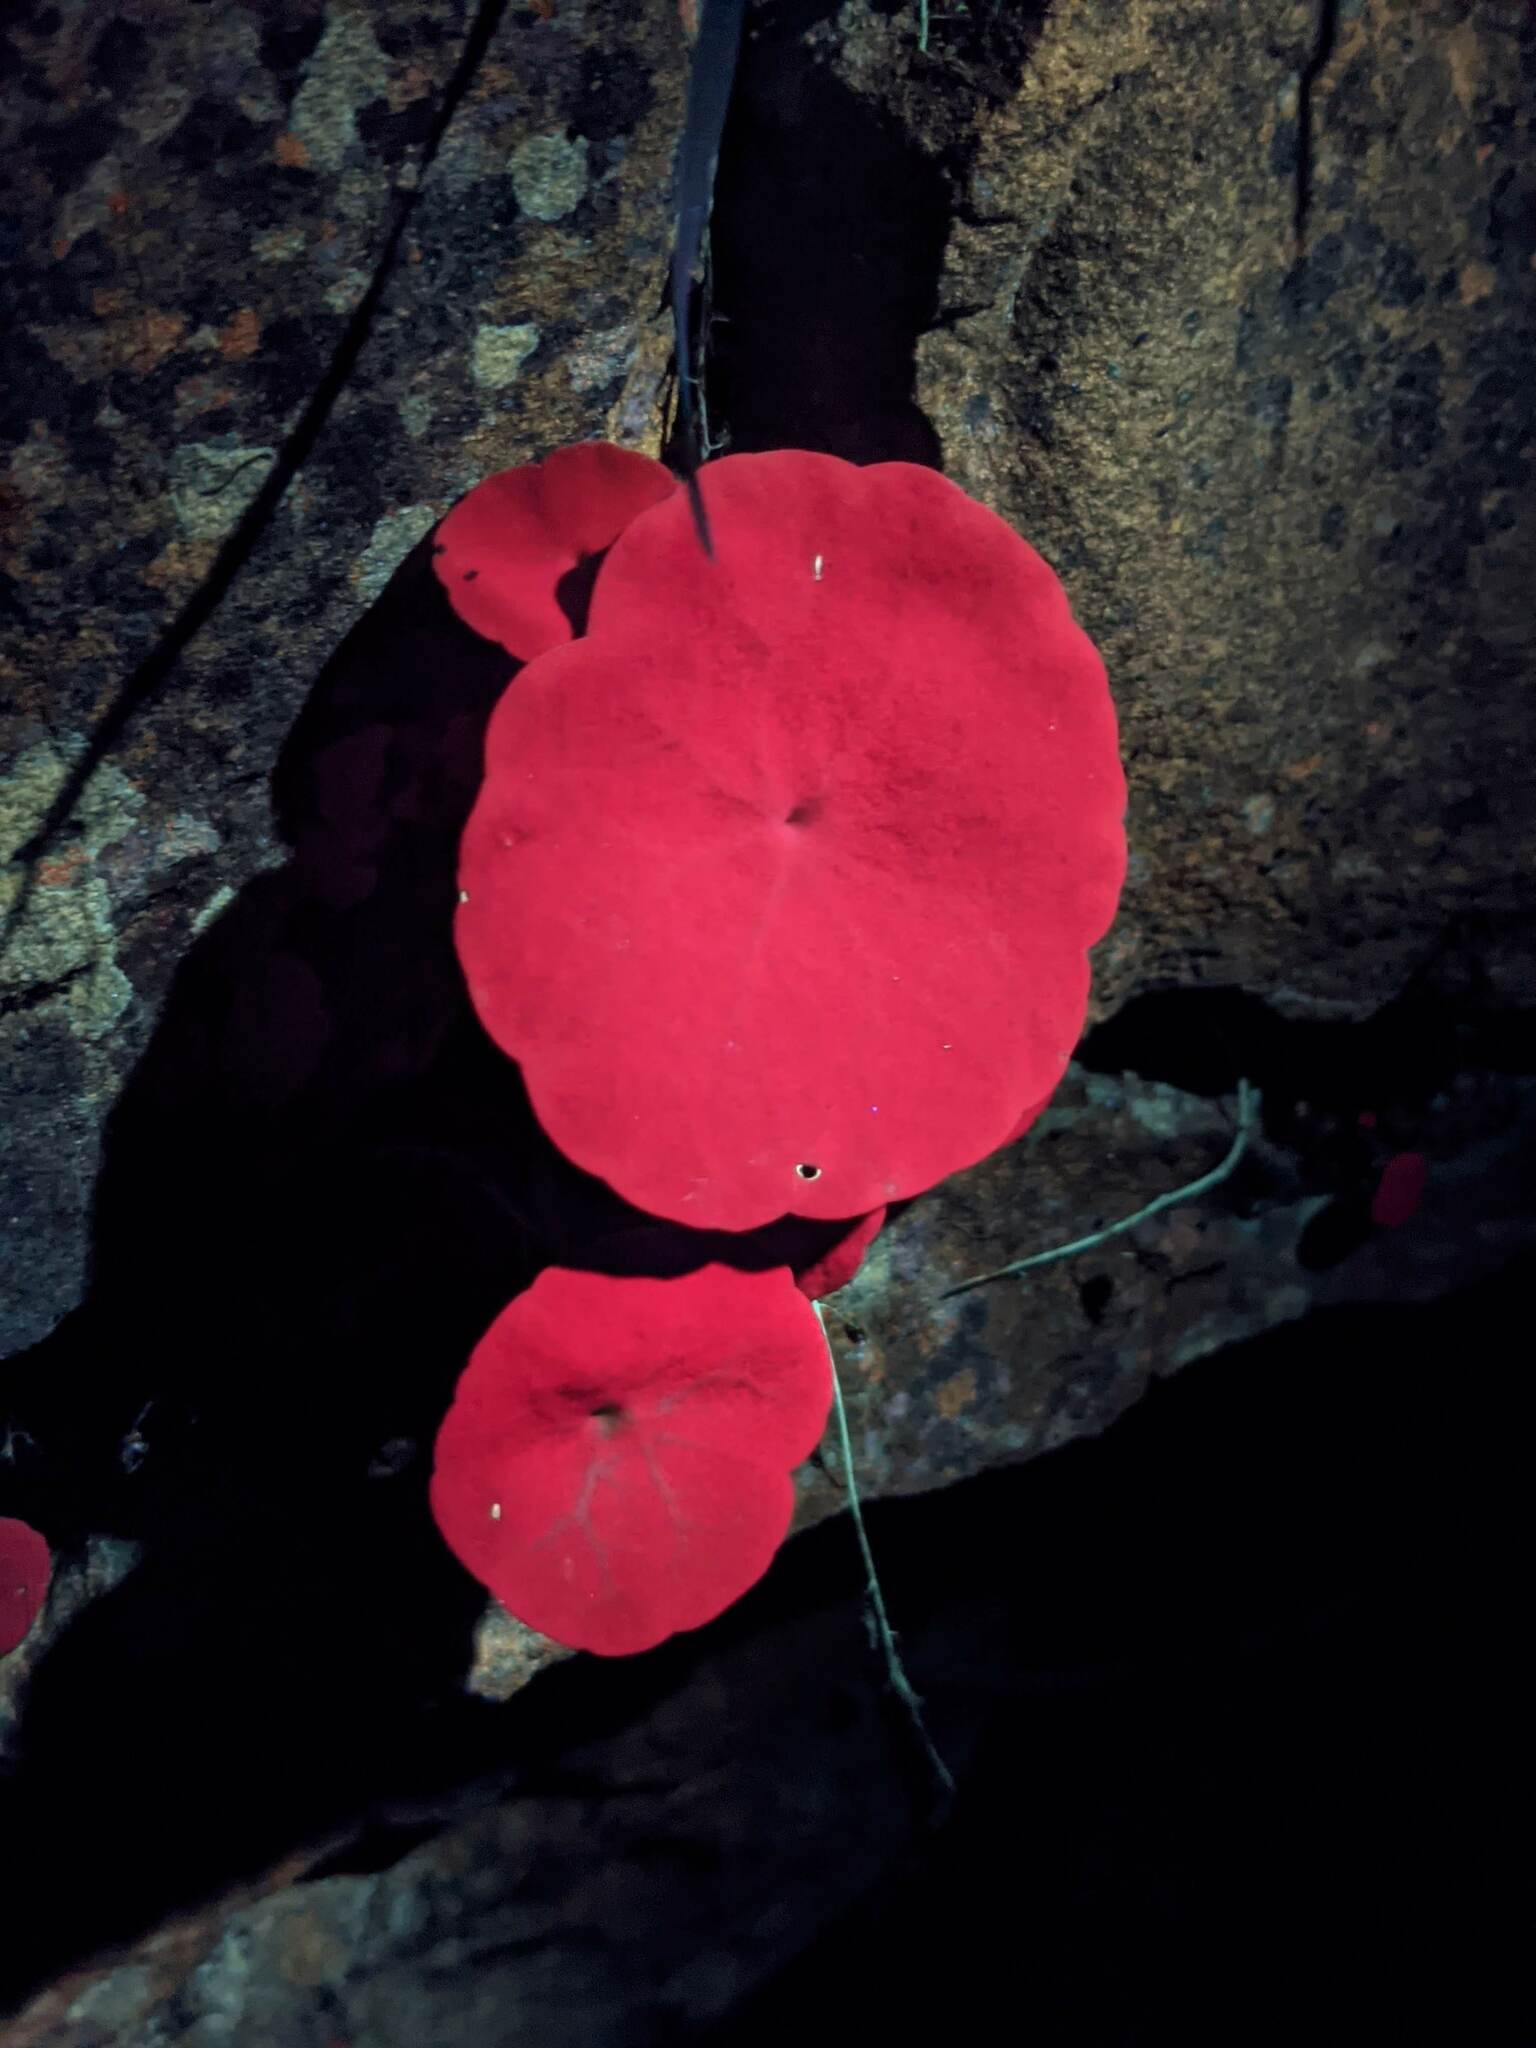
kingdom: Plantae
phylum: Tracheophyta
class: Magnoliopsida
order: Saxifragales
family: Crassulaceae
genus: Umbilicus
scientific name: Umbilicus rupestris
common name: Navelwort
